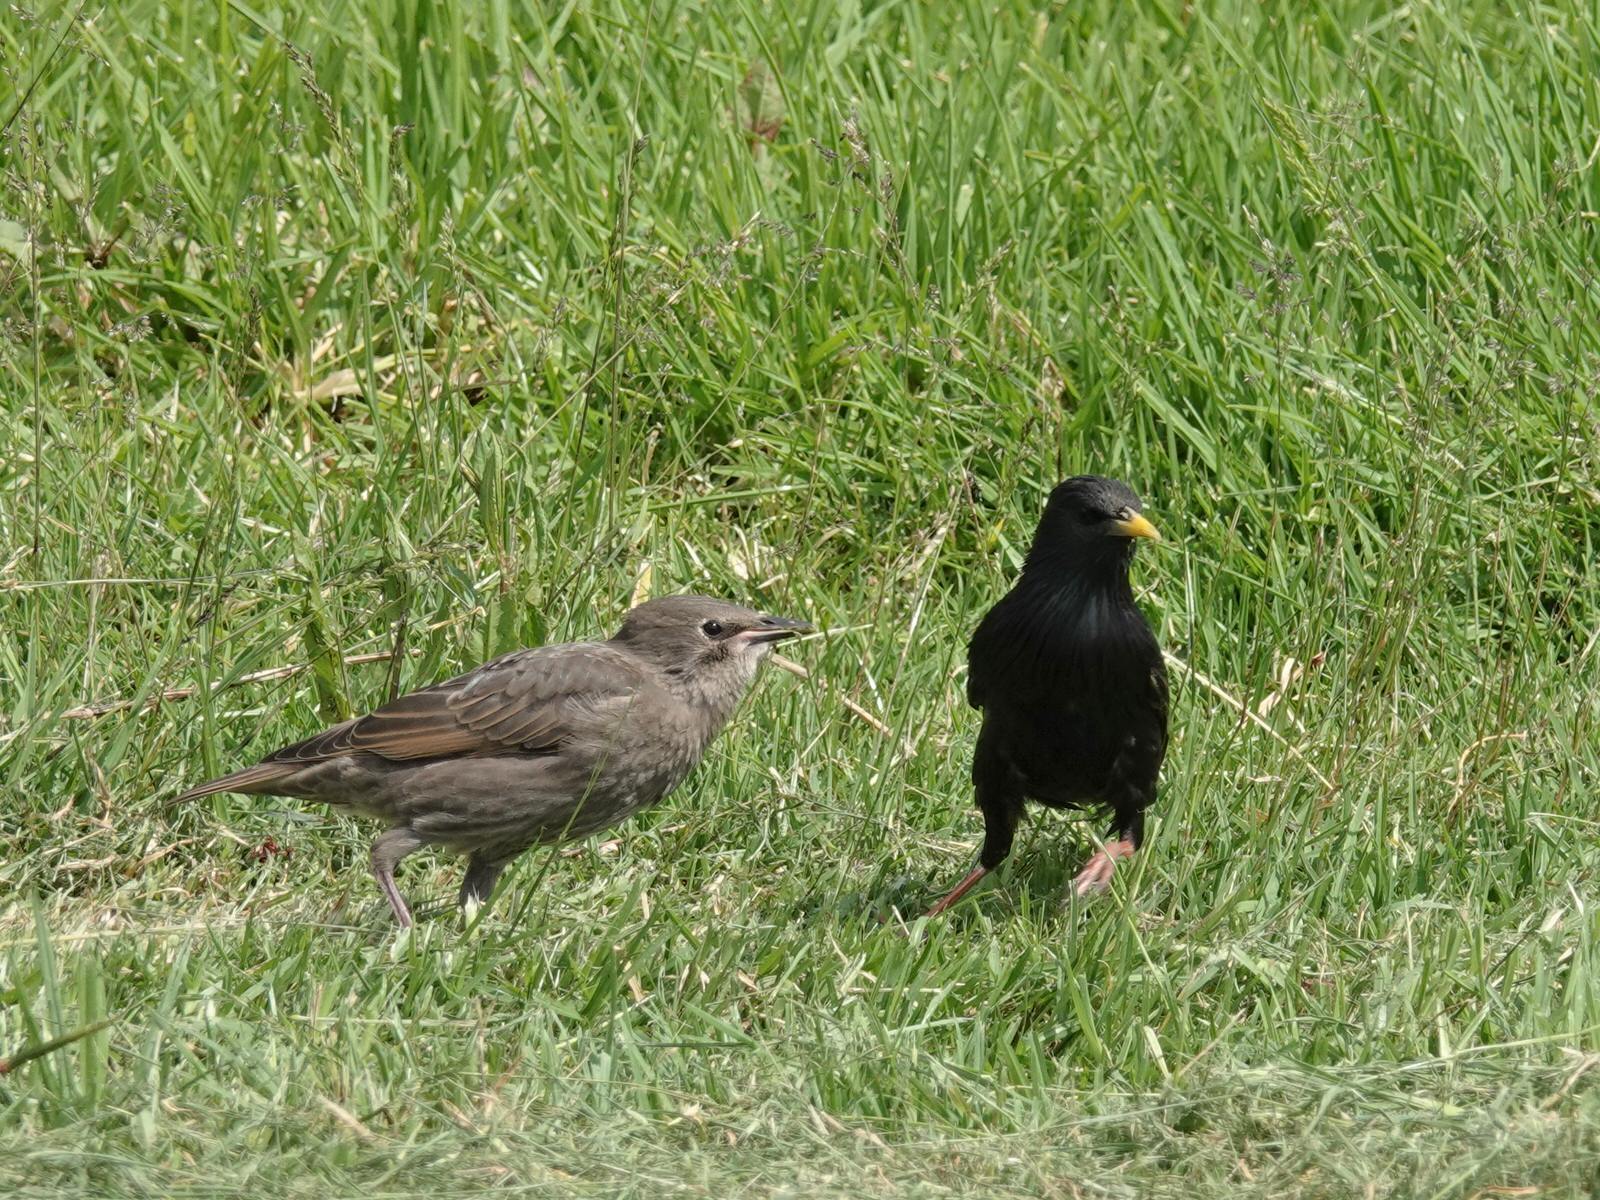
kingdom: Animalia
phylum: Chordata
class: Aves
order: Passeriformes
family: Sturnidae
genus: Sturnus
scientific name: Sturnus vulgaris
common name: Common starling
